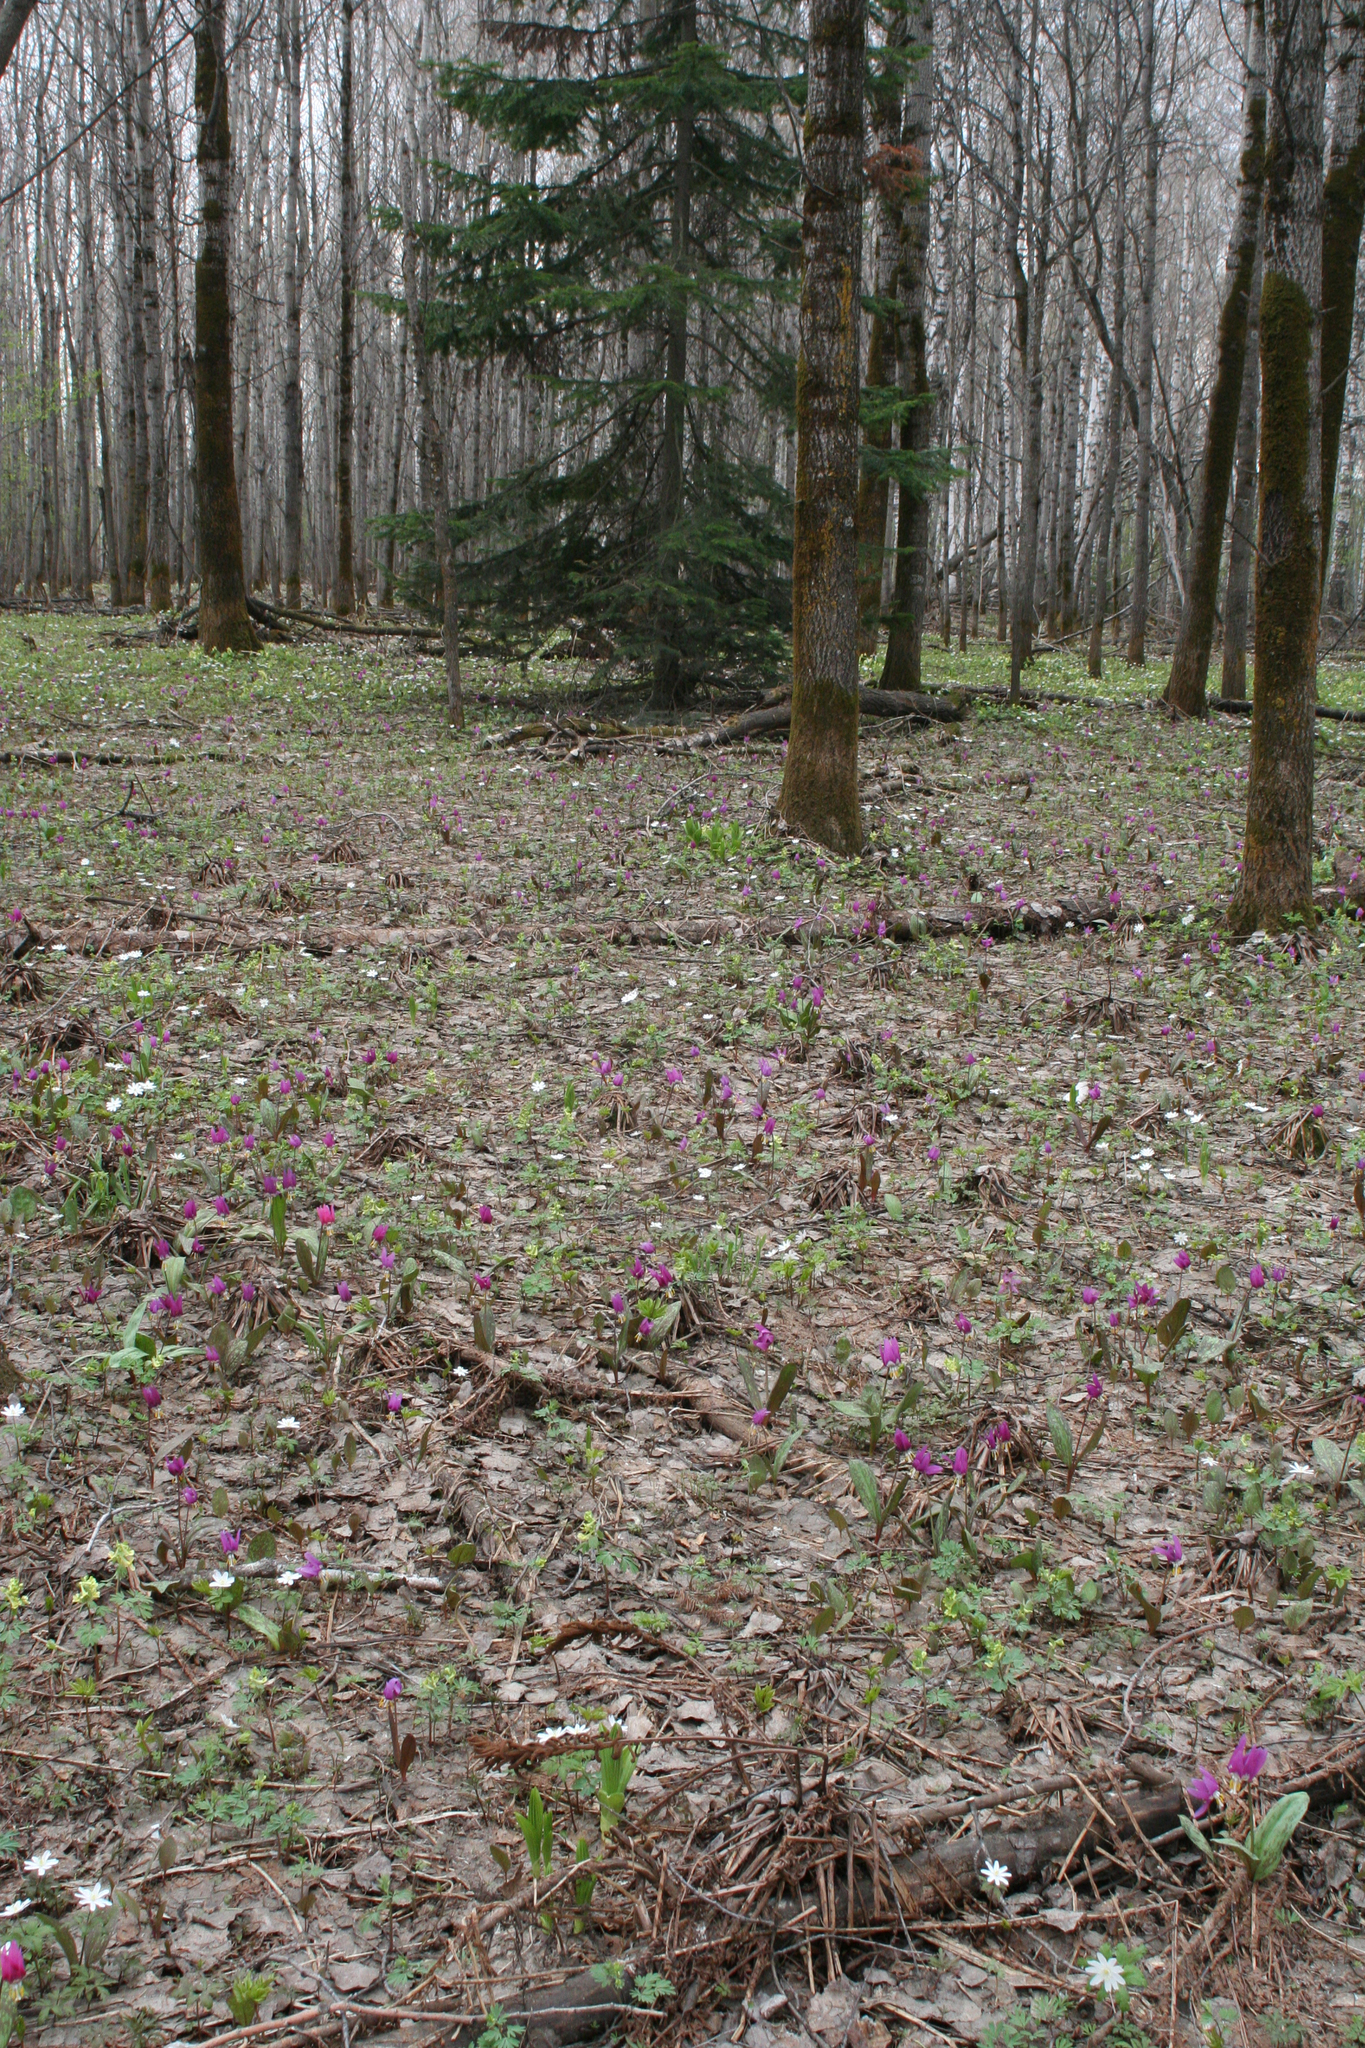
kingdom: Plantae
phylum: Tracheophyta
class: Magnoliopsida
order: Ranunculales
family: Ranunculaceae
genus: Anemone
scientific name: Anemone altaica
